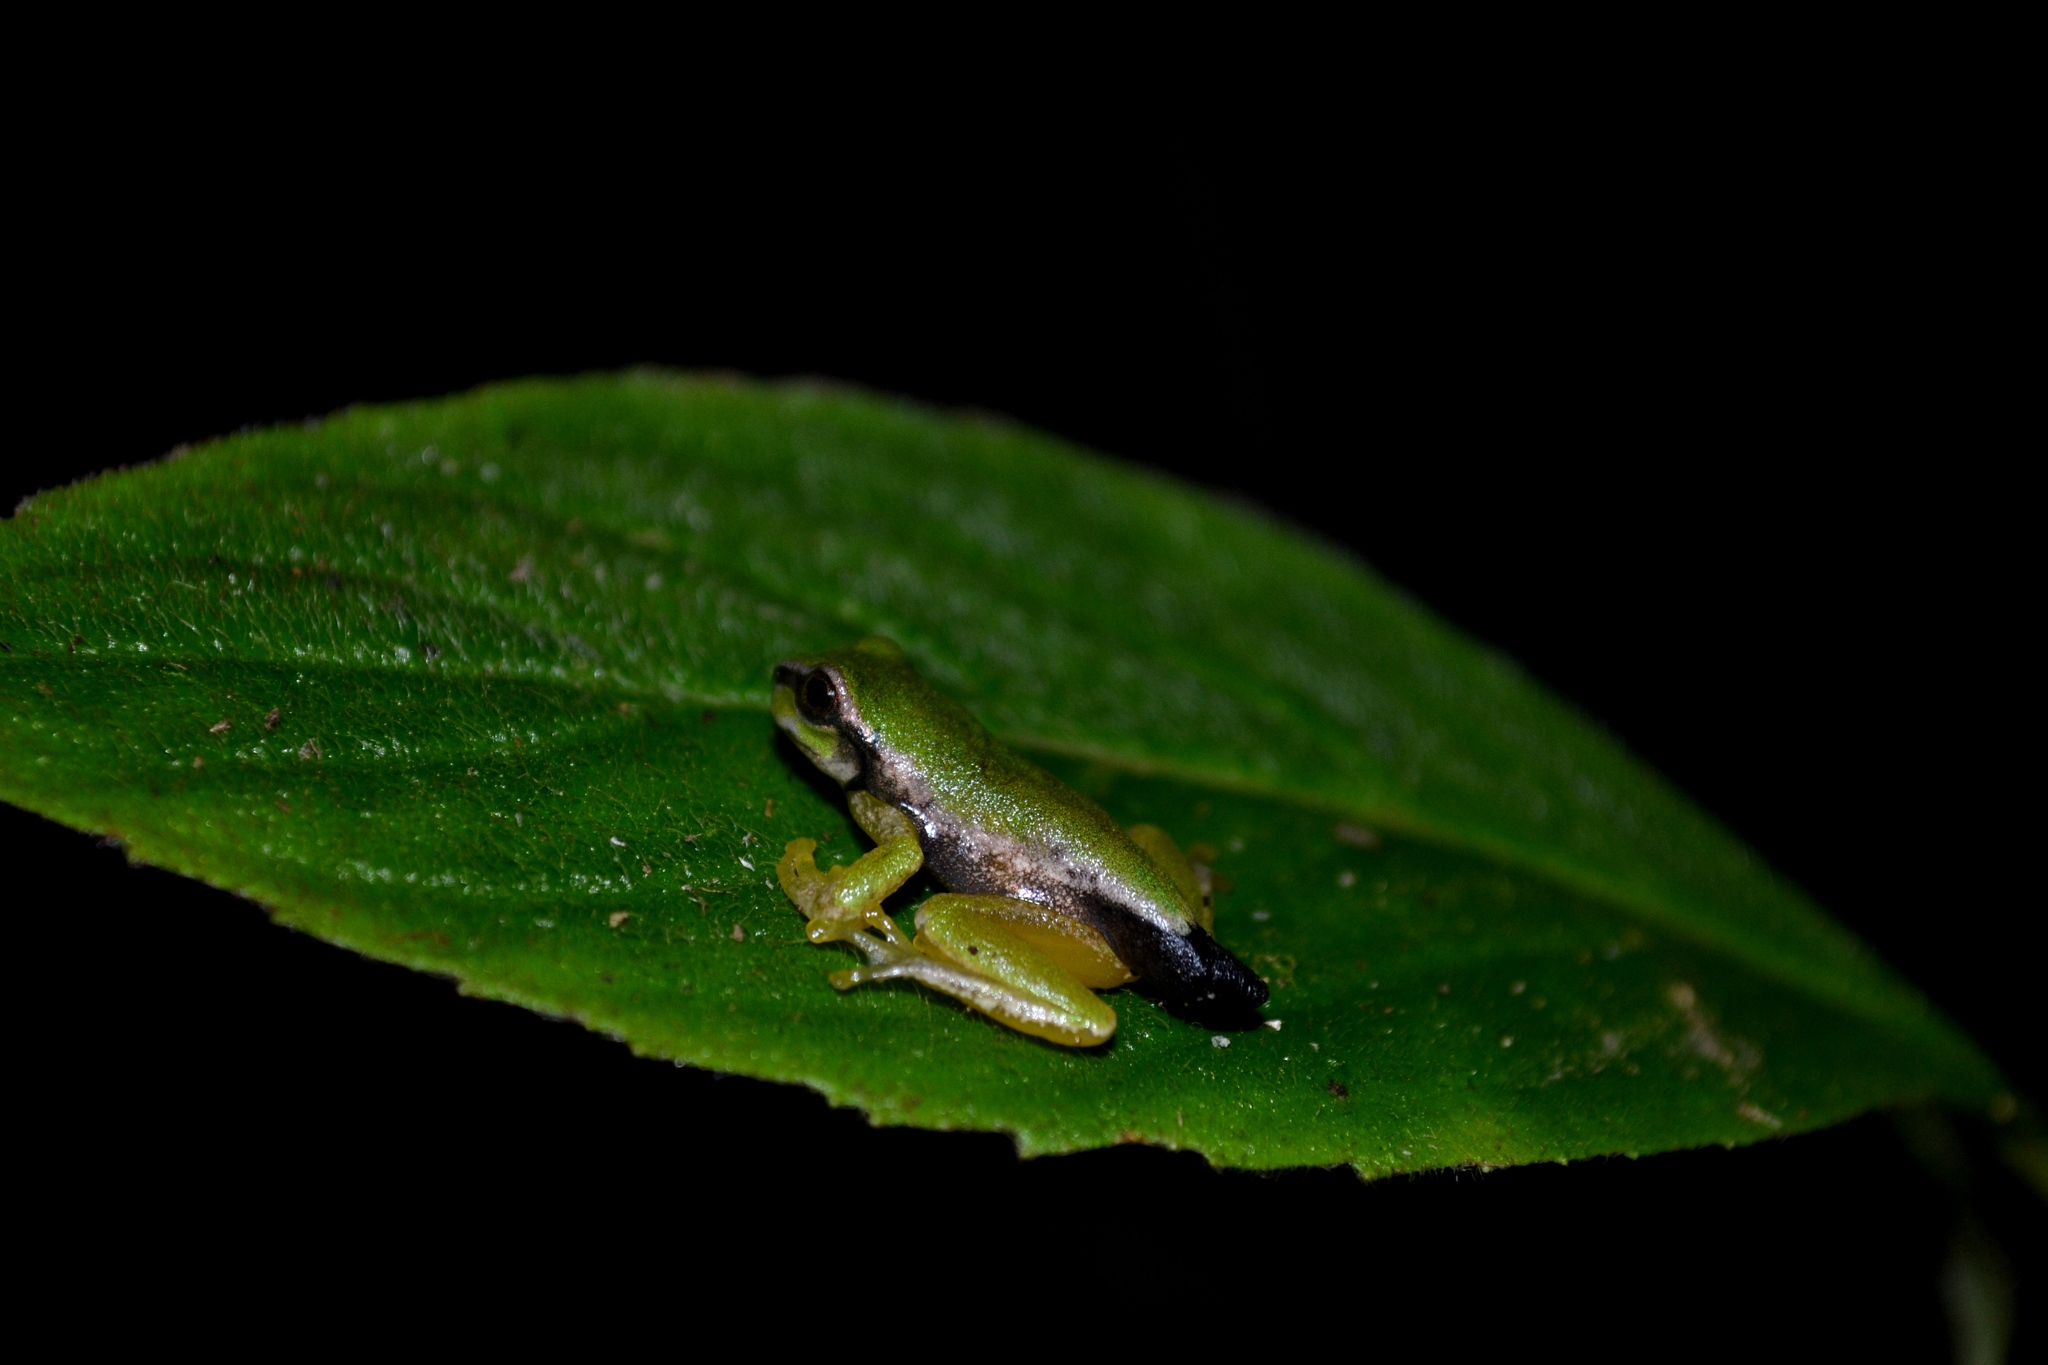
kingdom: Animalia
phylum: Chordata
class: Amphibia
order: Anura
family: Hylidae
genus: Plectrohyla
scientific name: Plectrohyla sagorum
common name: Arcane spikethumb frog
